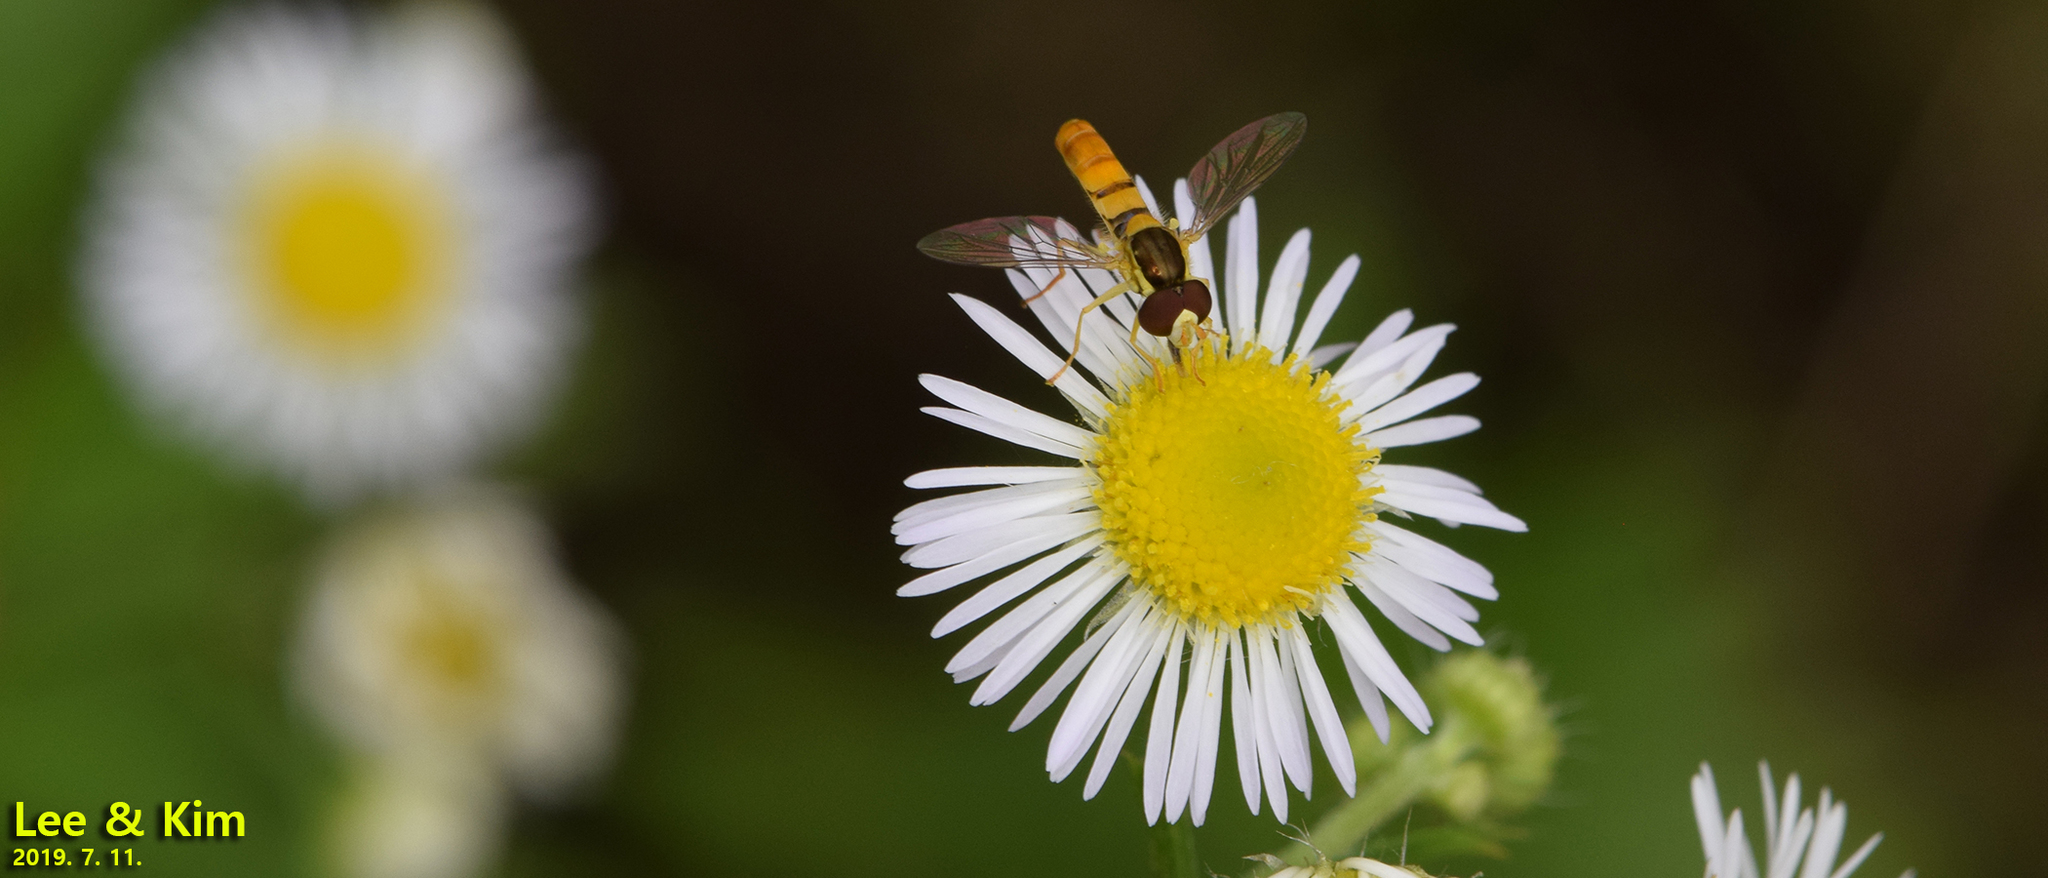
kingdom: Animalia
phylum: Arthropoda
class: Insecta
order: Diptera
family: Syrphidae
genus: Sphaerophoria
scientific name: Sphaerophoria scripta
